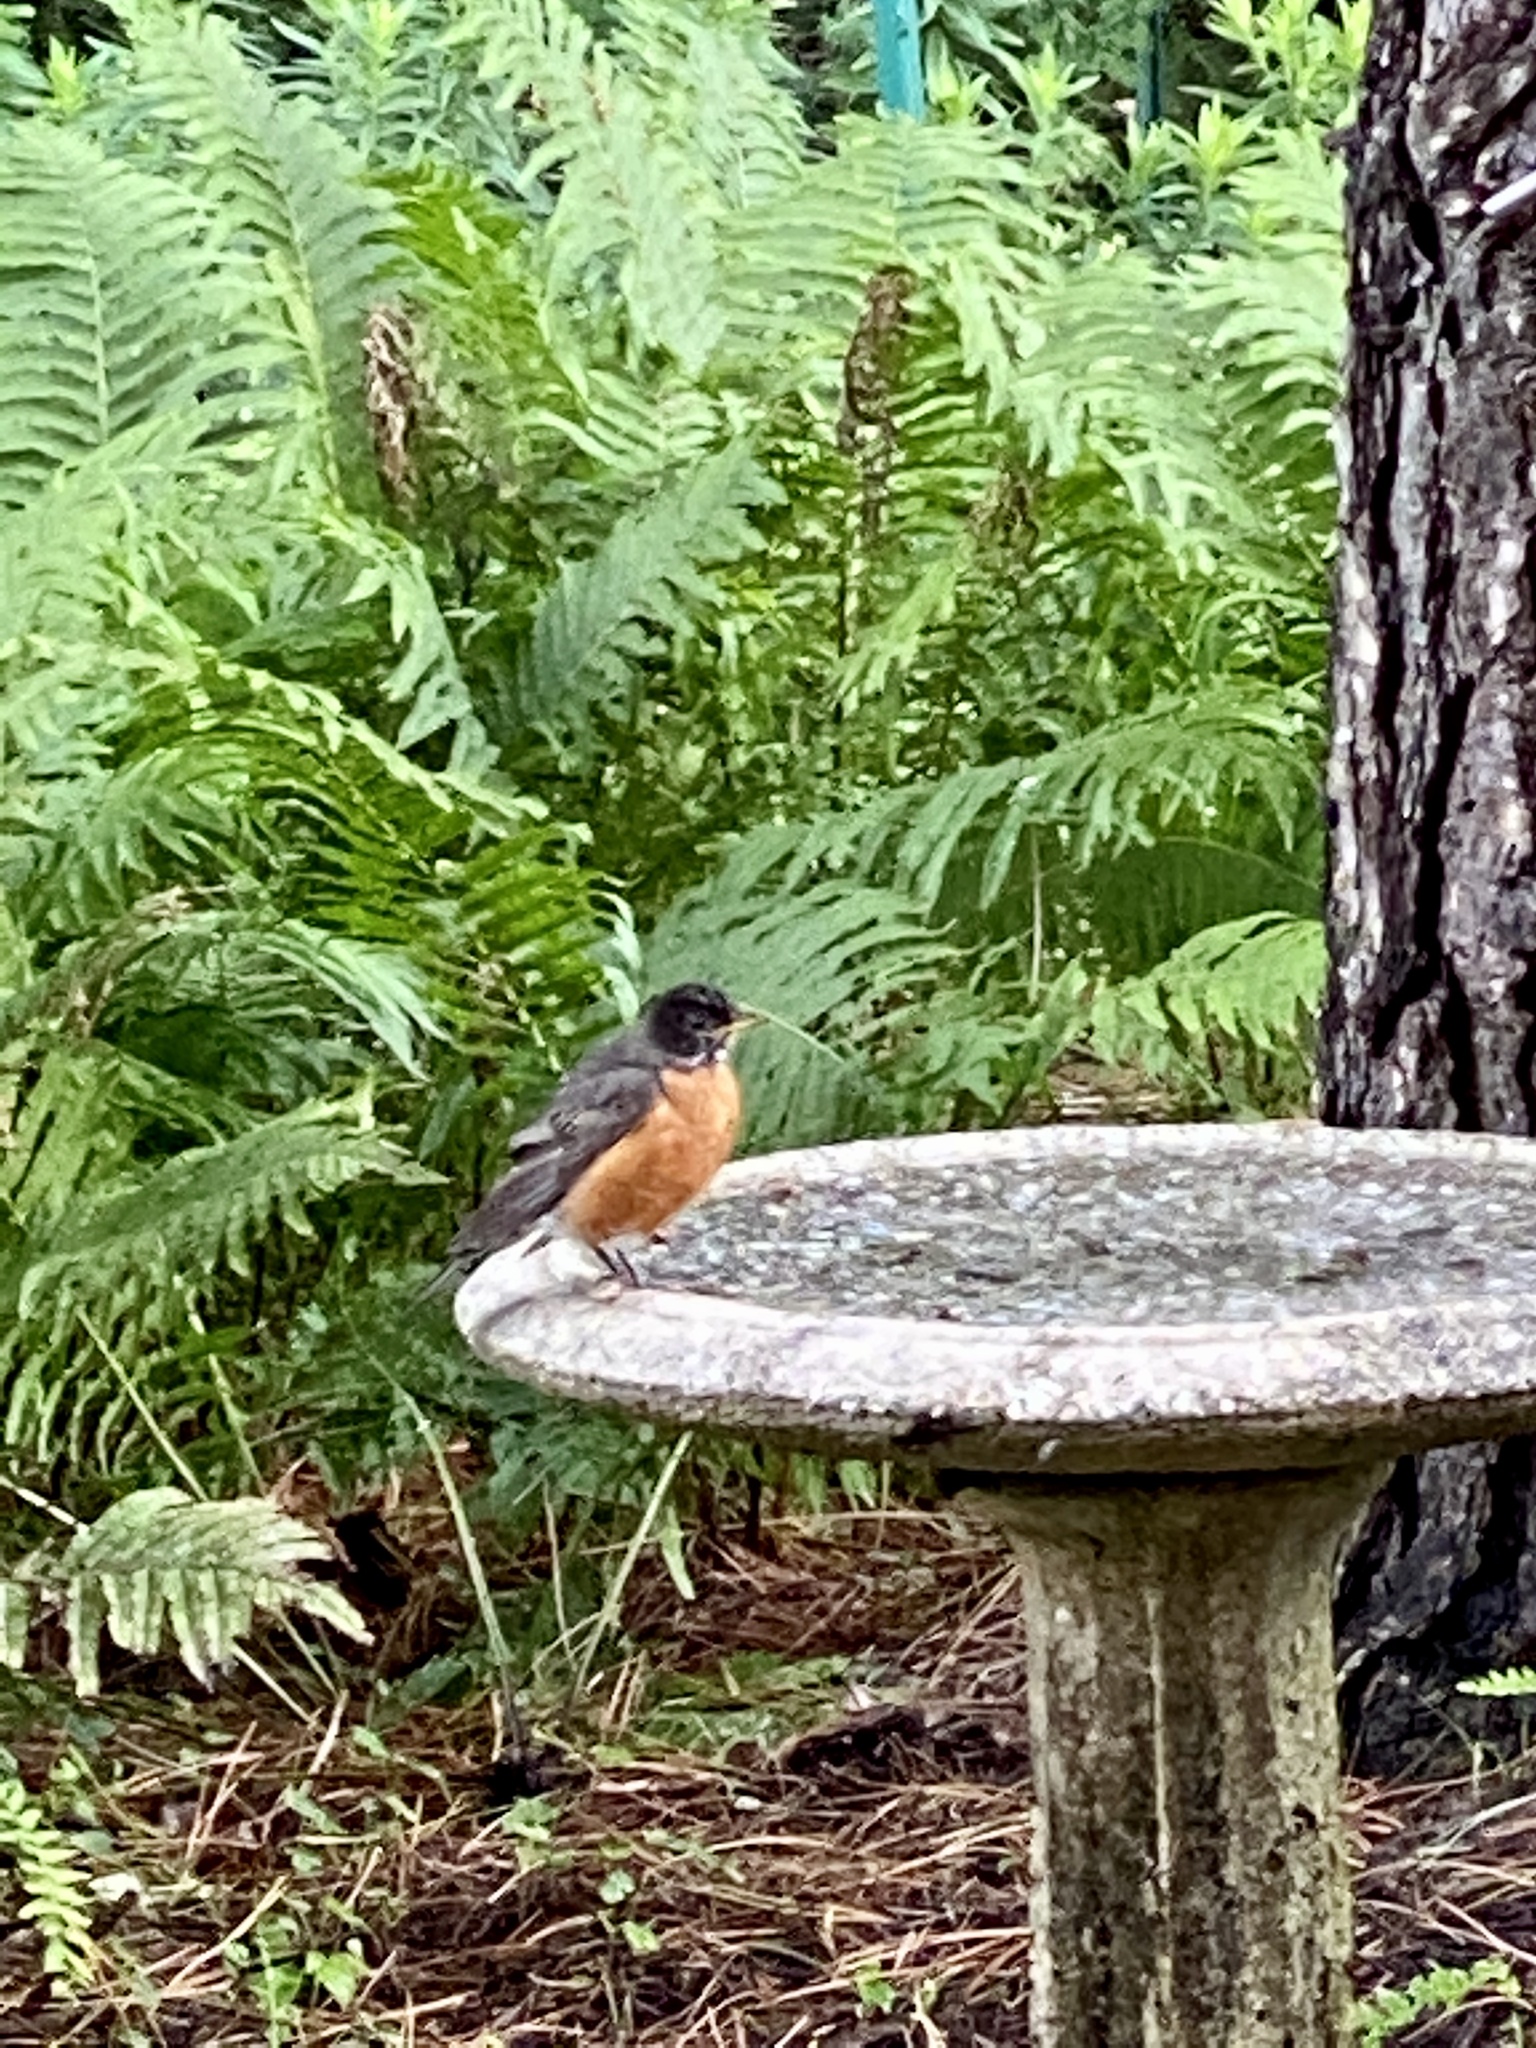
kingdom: Animalia
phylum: Chordata
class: Aves
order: Passeriformes
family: Turdidae
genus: Turdus
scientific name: Turdus migratorius
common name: American robin
